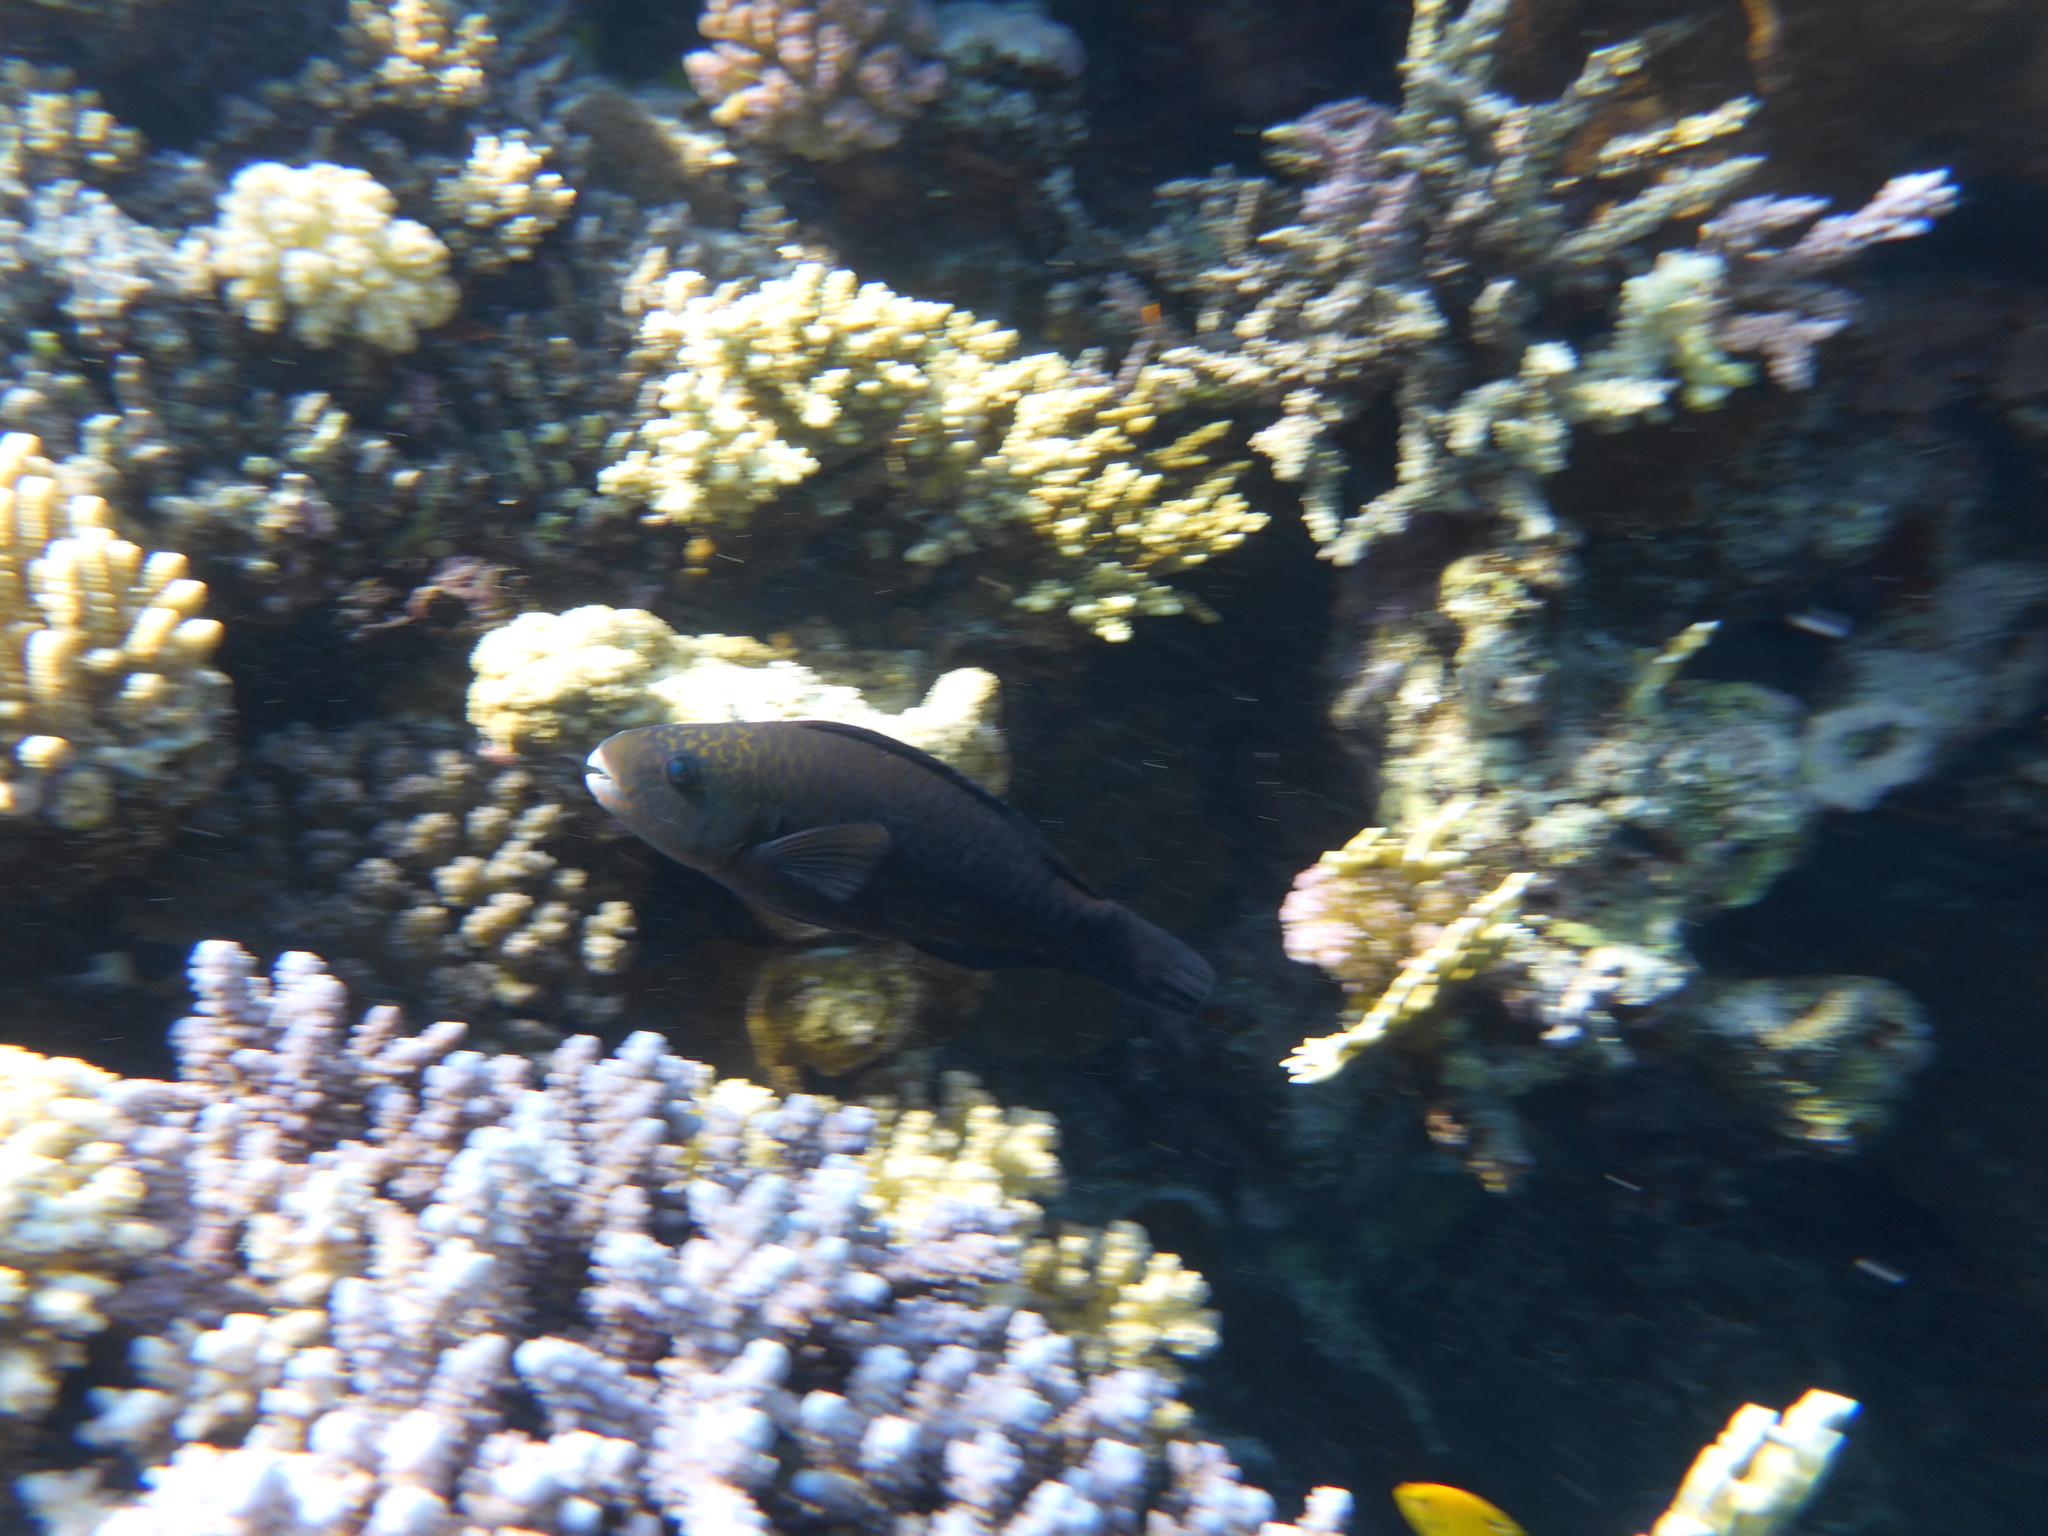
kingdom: Animalia
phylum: Chordata
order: Perciformes
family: Scaridae
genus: Chlorurus
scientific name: Chlorurus sordidus
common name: Bullethead parrotfish
